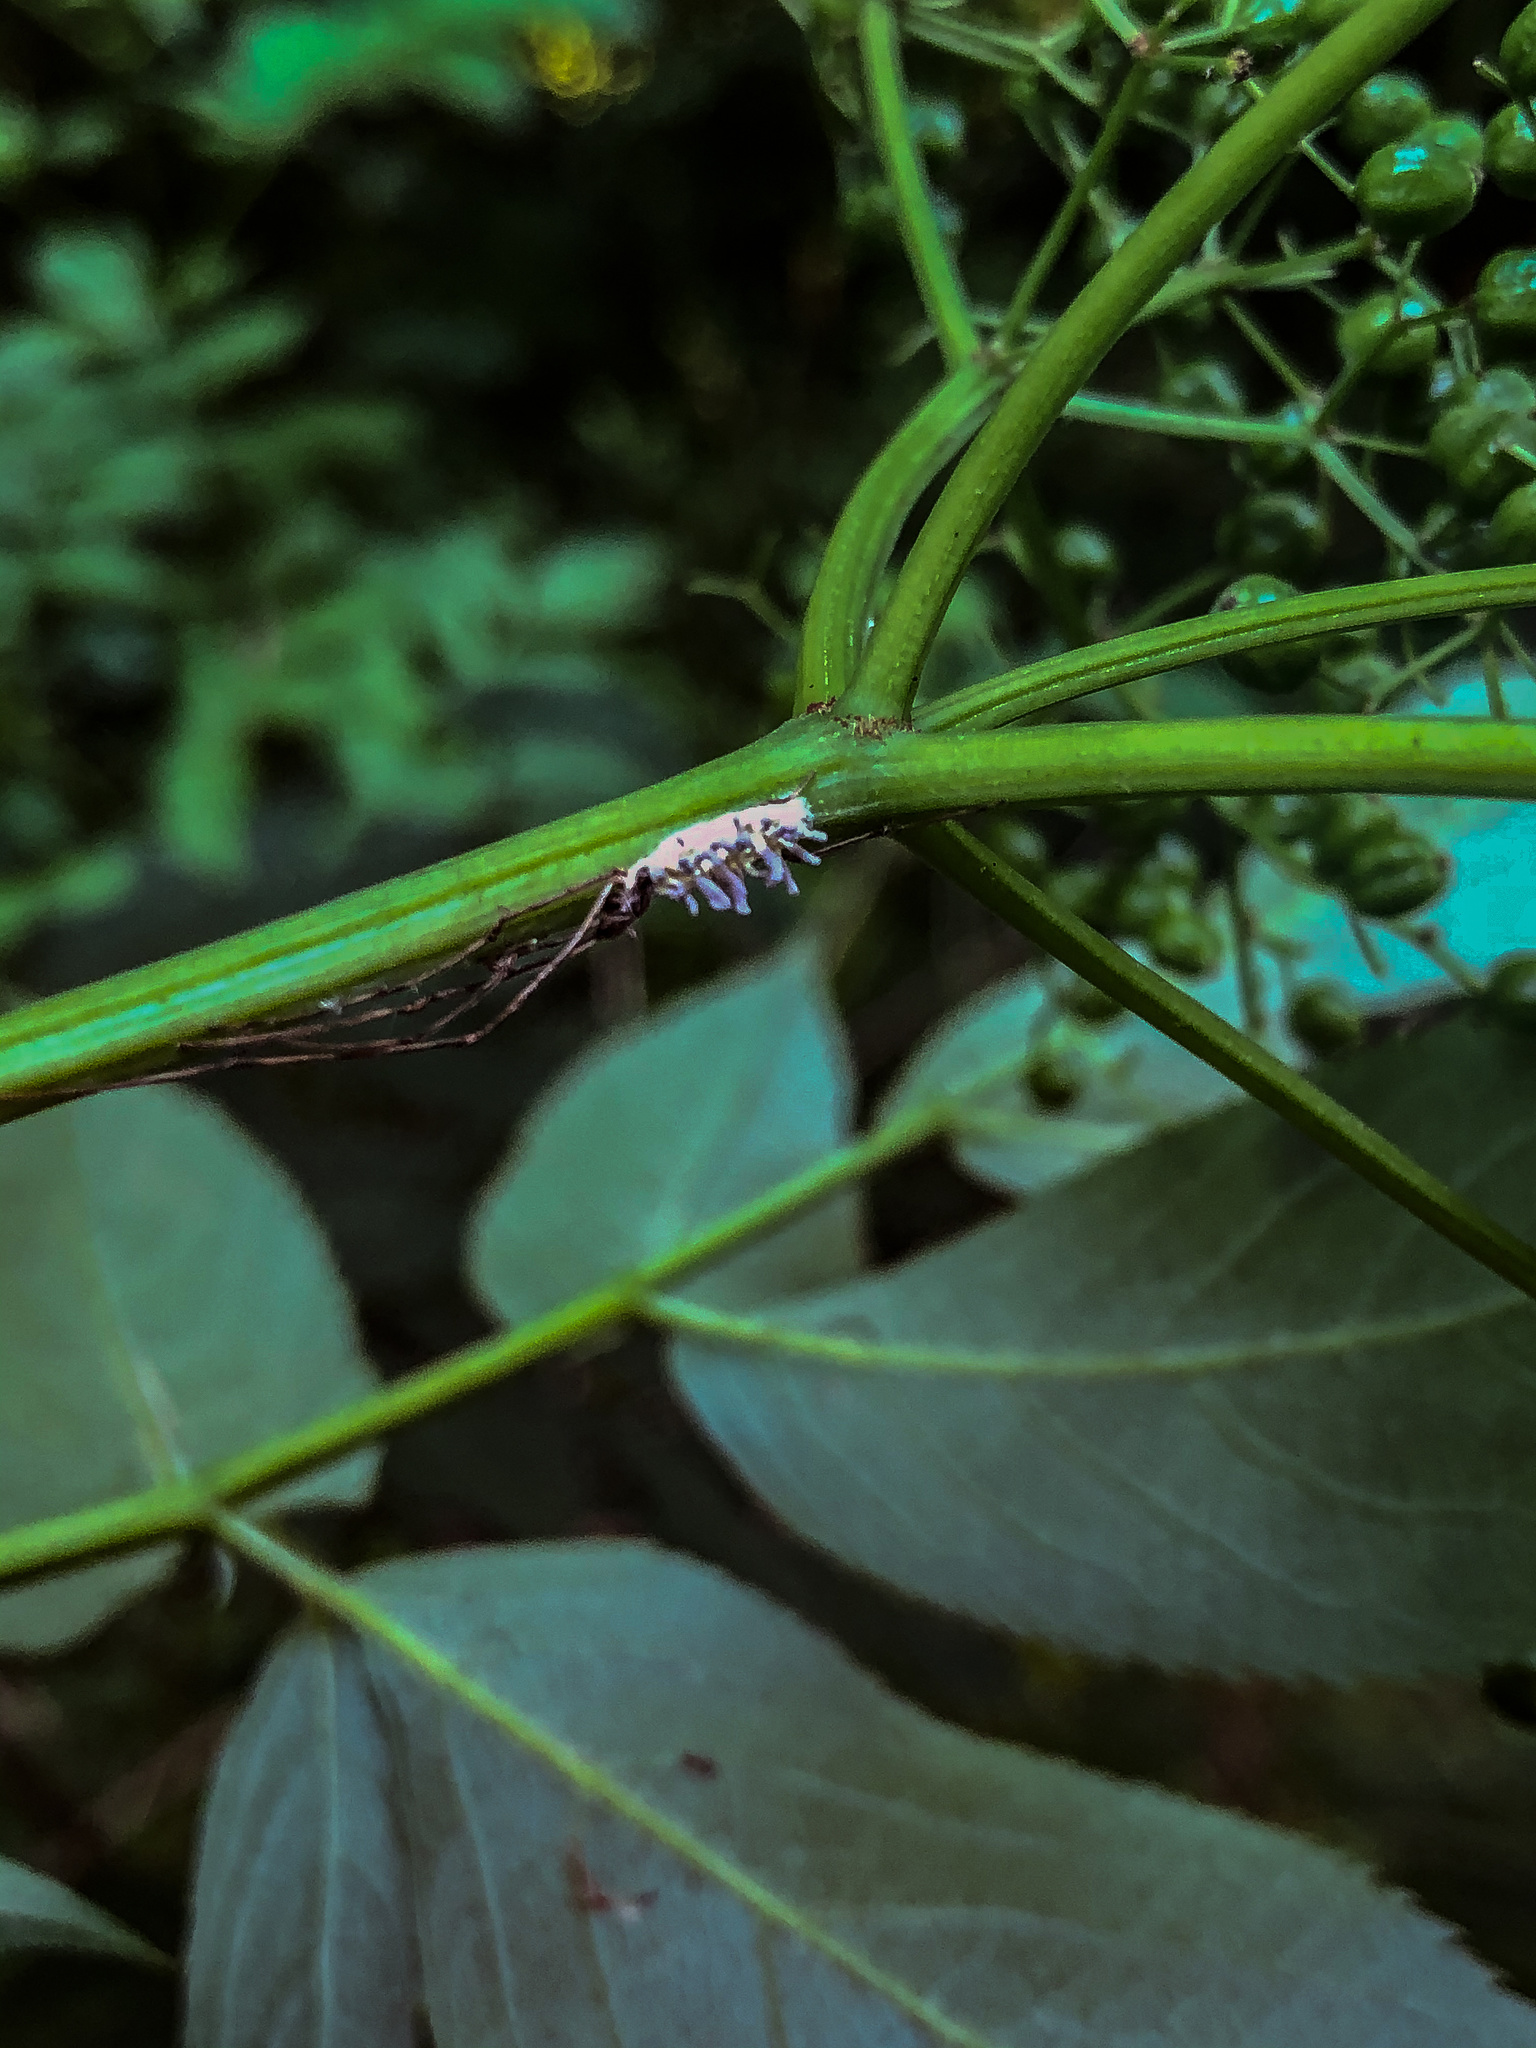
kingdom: Fungi
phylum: Ascomycota
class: Sordariomycetes
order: Hypocreales
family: Cordycipitaceae
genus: Gibellula
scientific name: Gibellula arachnophila
